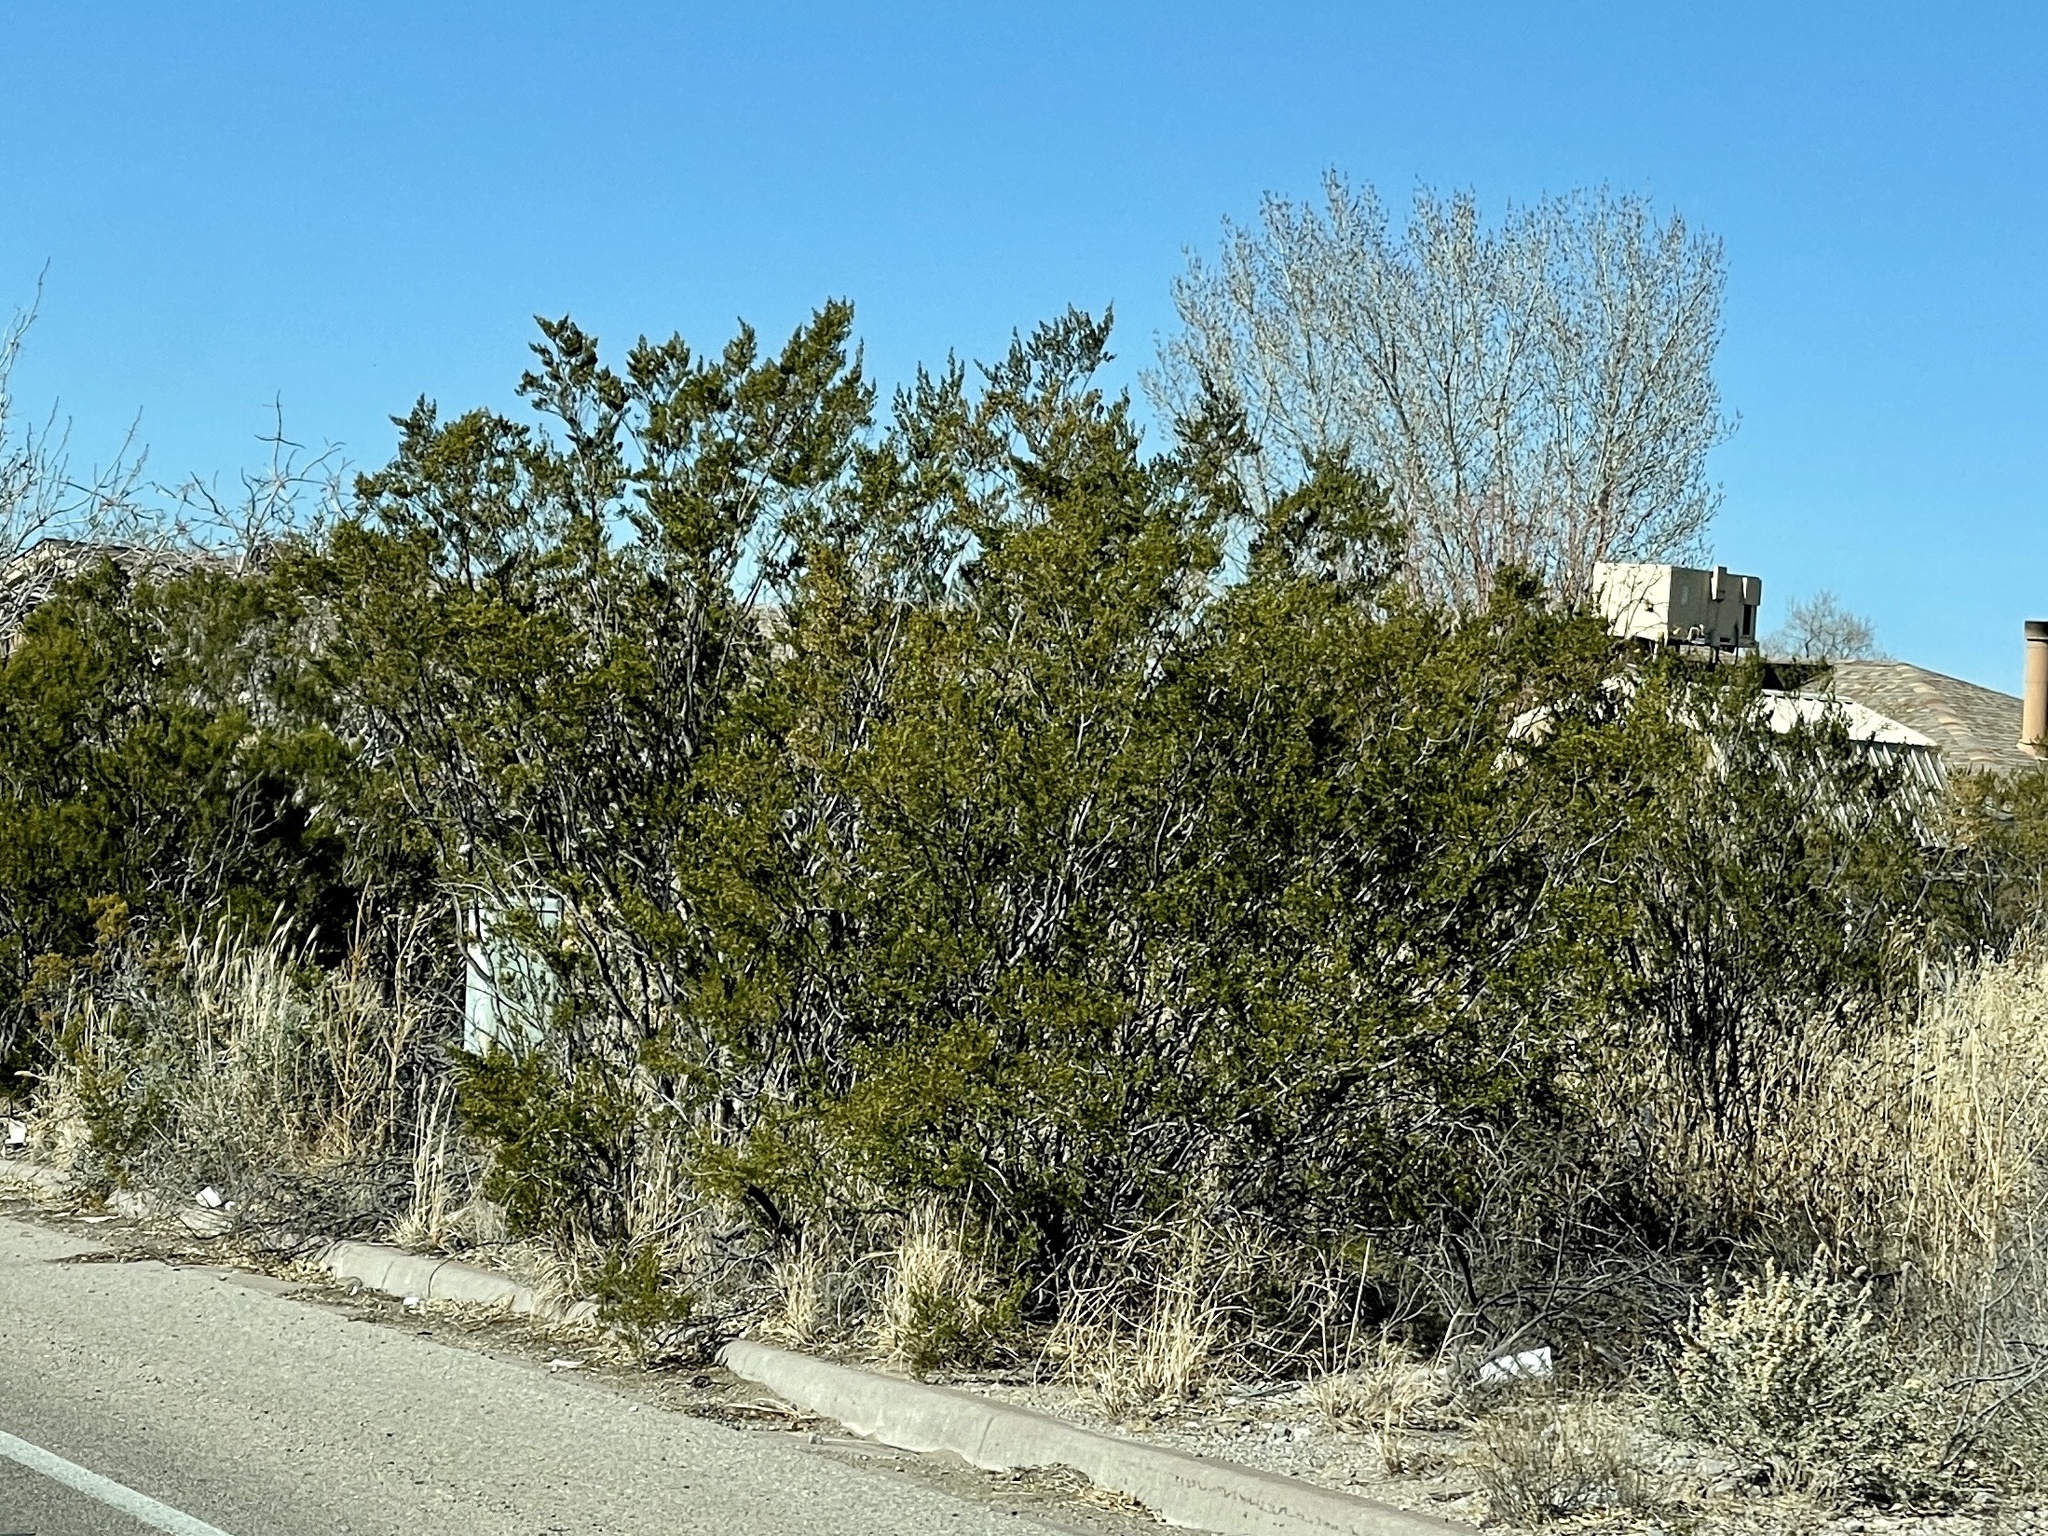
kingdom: Plantae
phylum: Tracheophyta
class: Magnoliopsida
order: Zygophyllales
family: Zygophyllaceae
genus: Larrea
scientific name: Larrea tridentata
